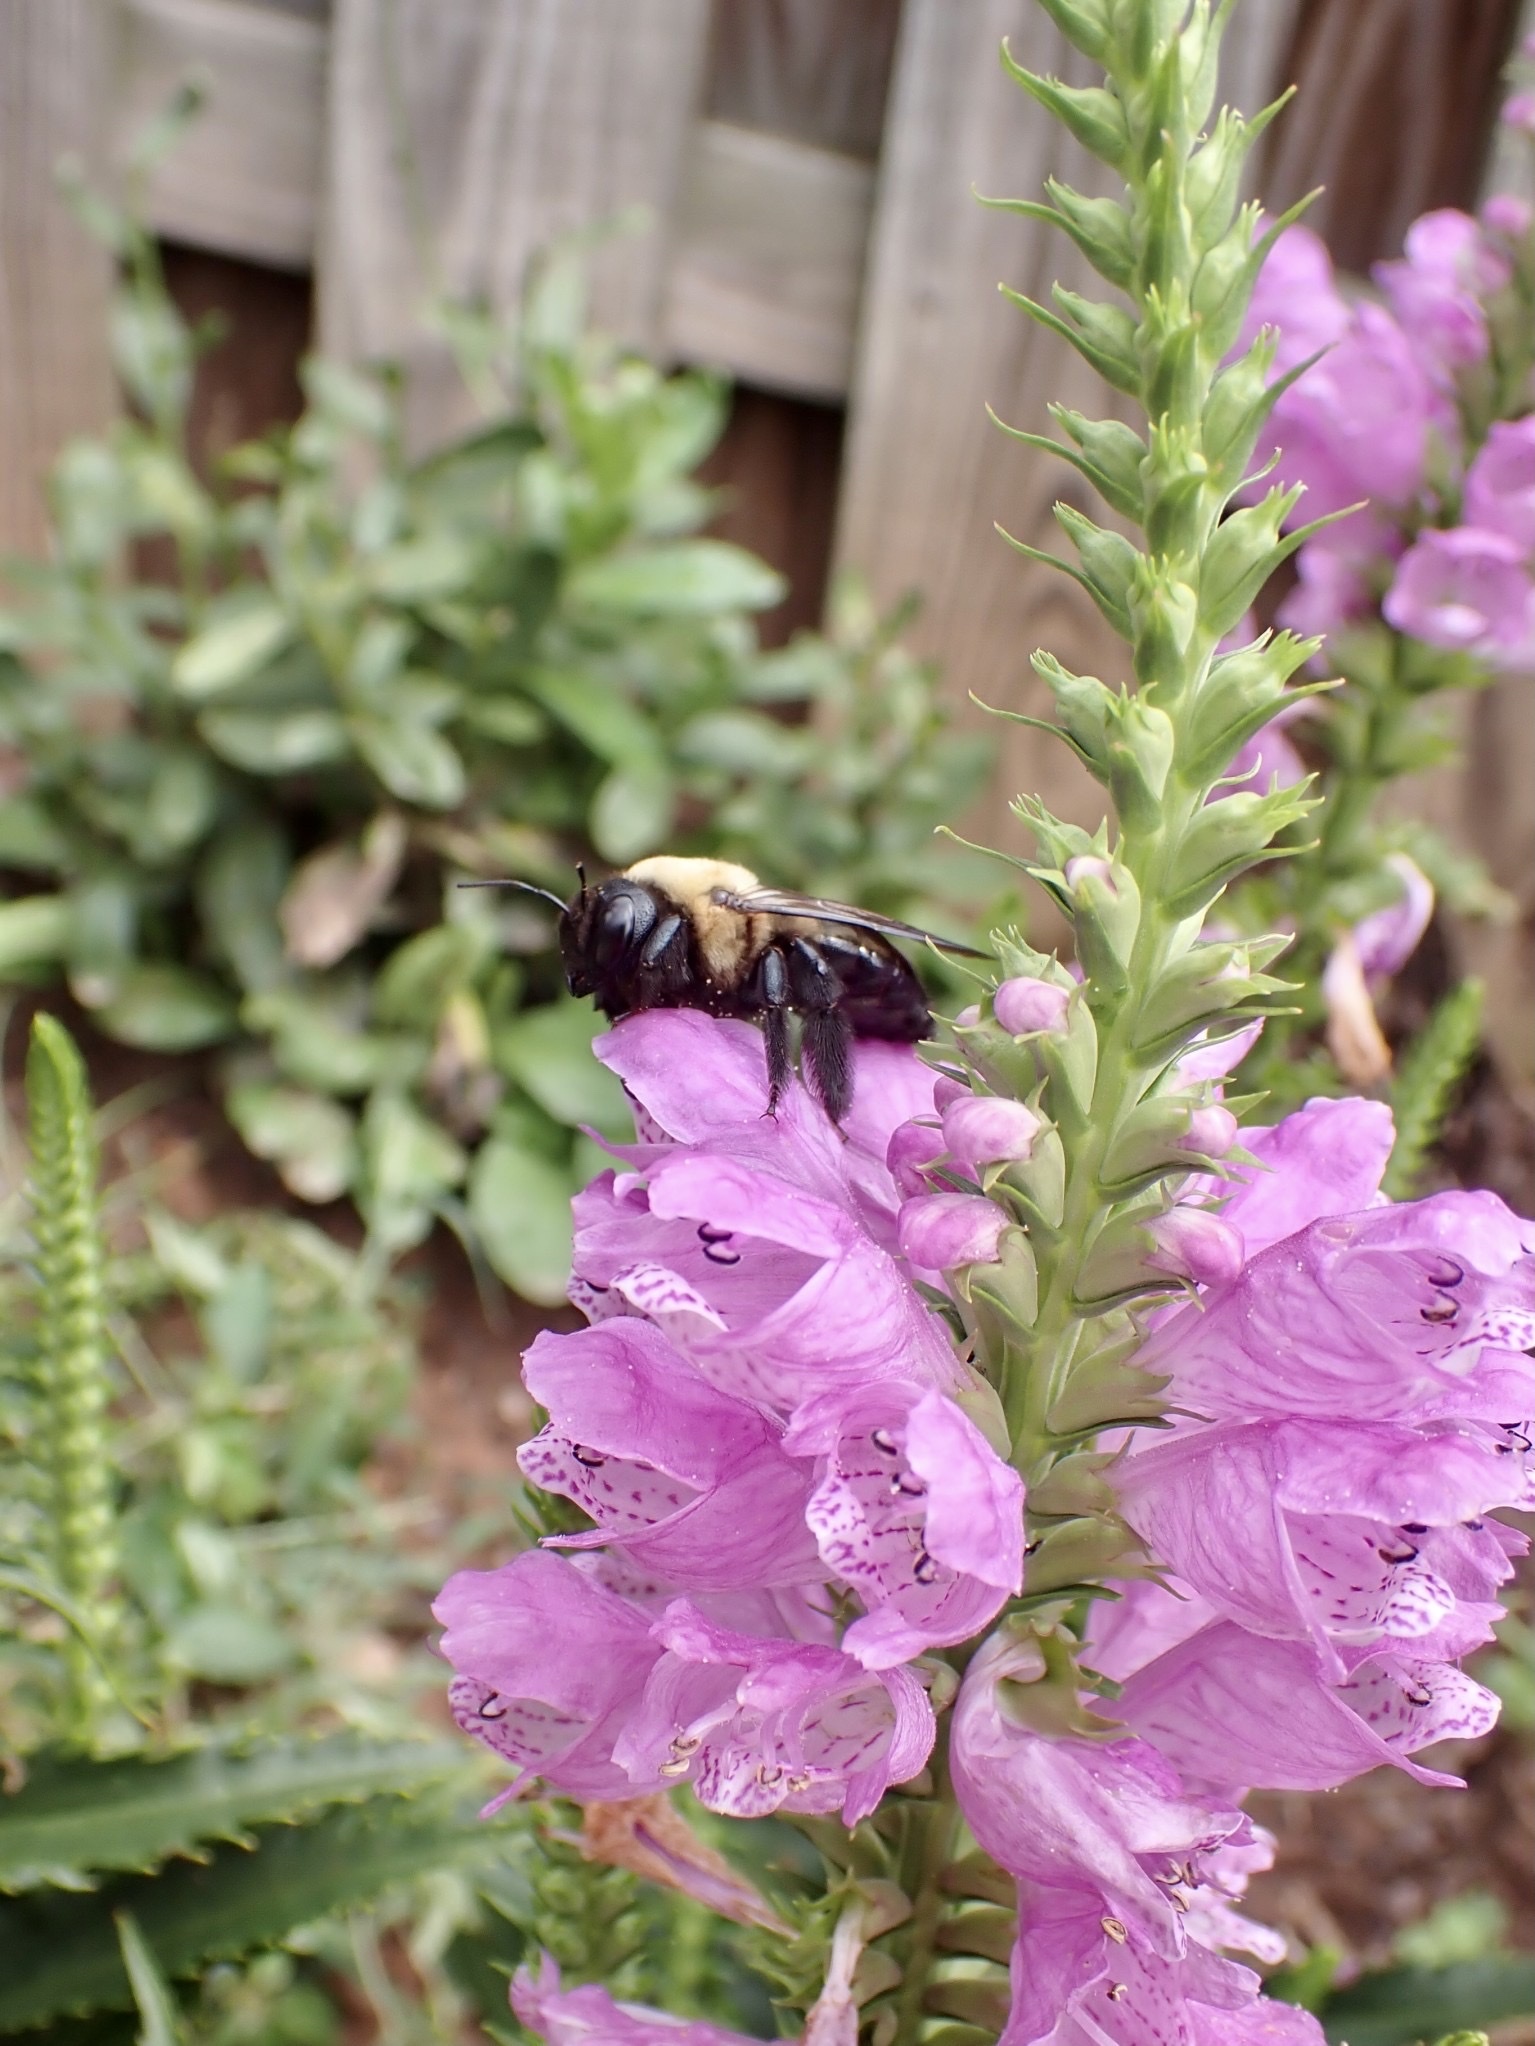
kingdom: Animalia
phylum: Arthropoda
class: Insecta
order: Hymenoptera
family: Apidae
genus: Bombus
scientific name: Bombus impatiens
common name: Common eastern bumble bee
